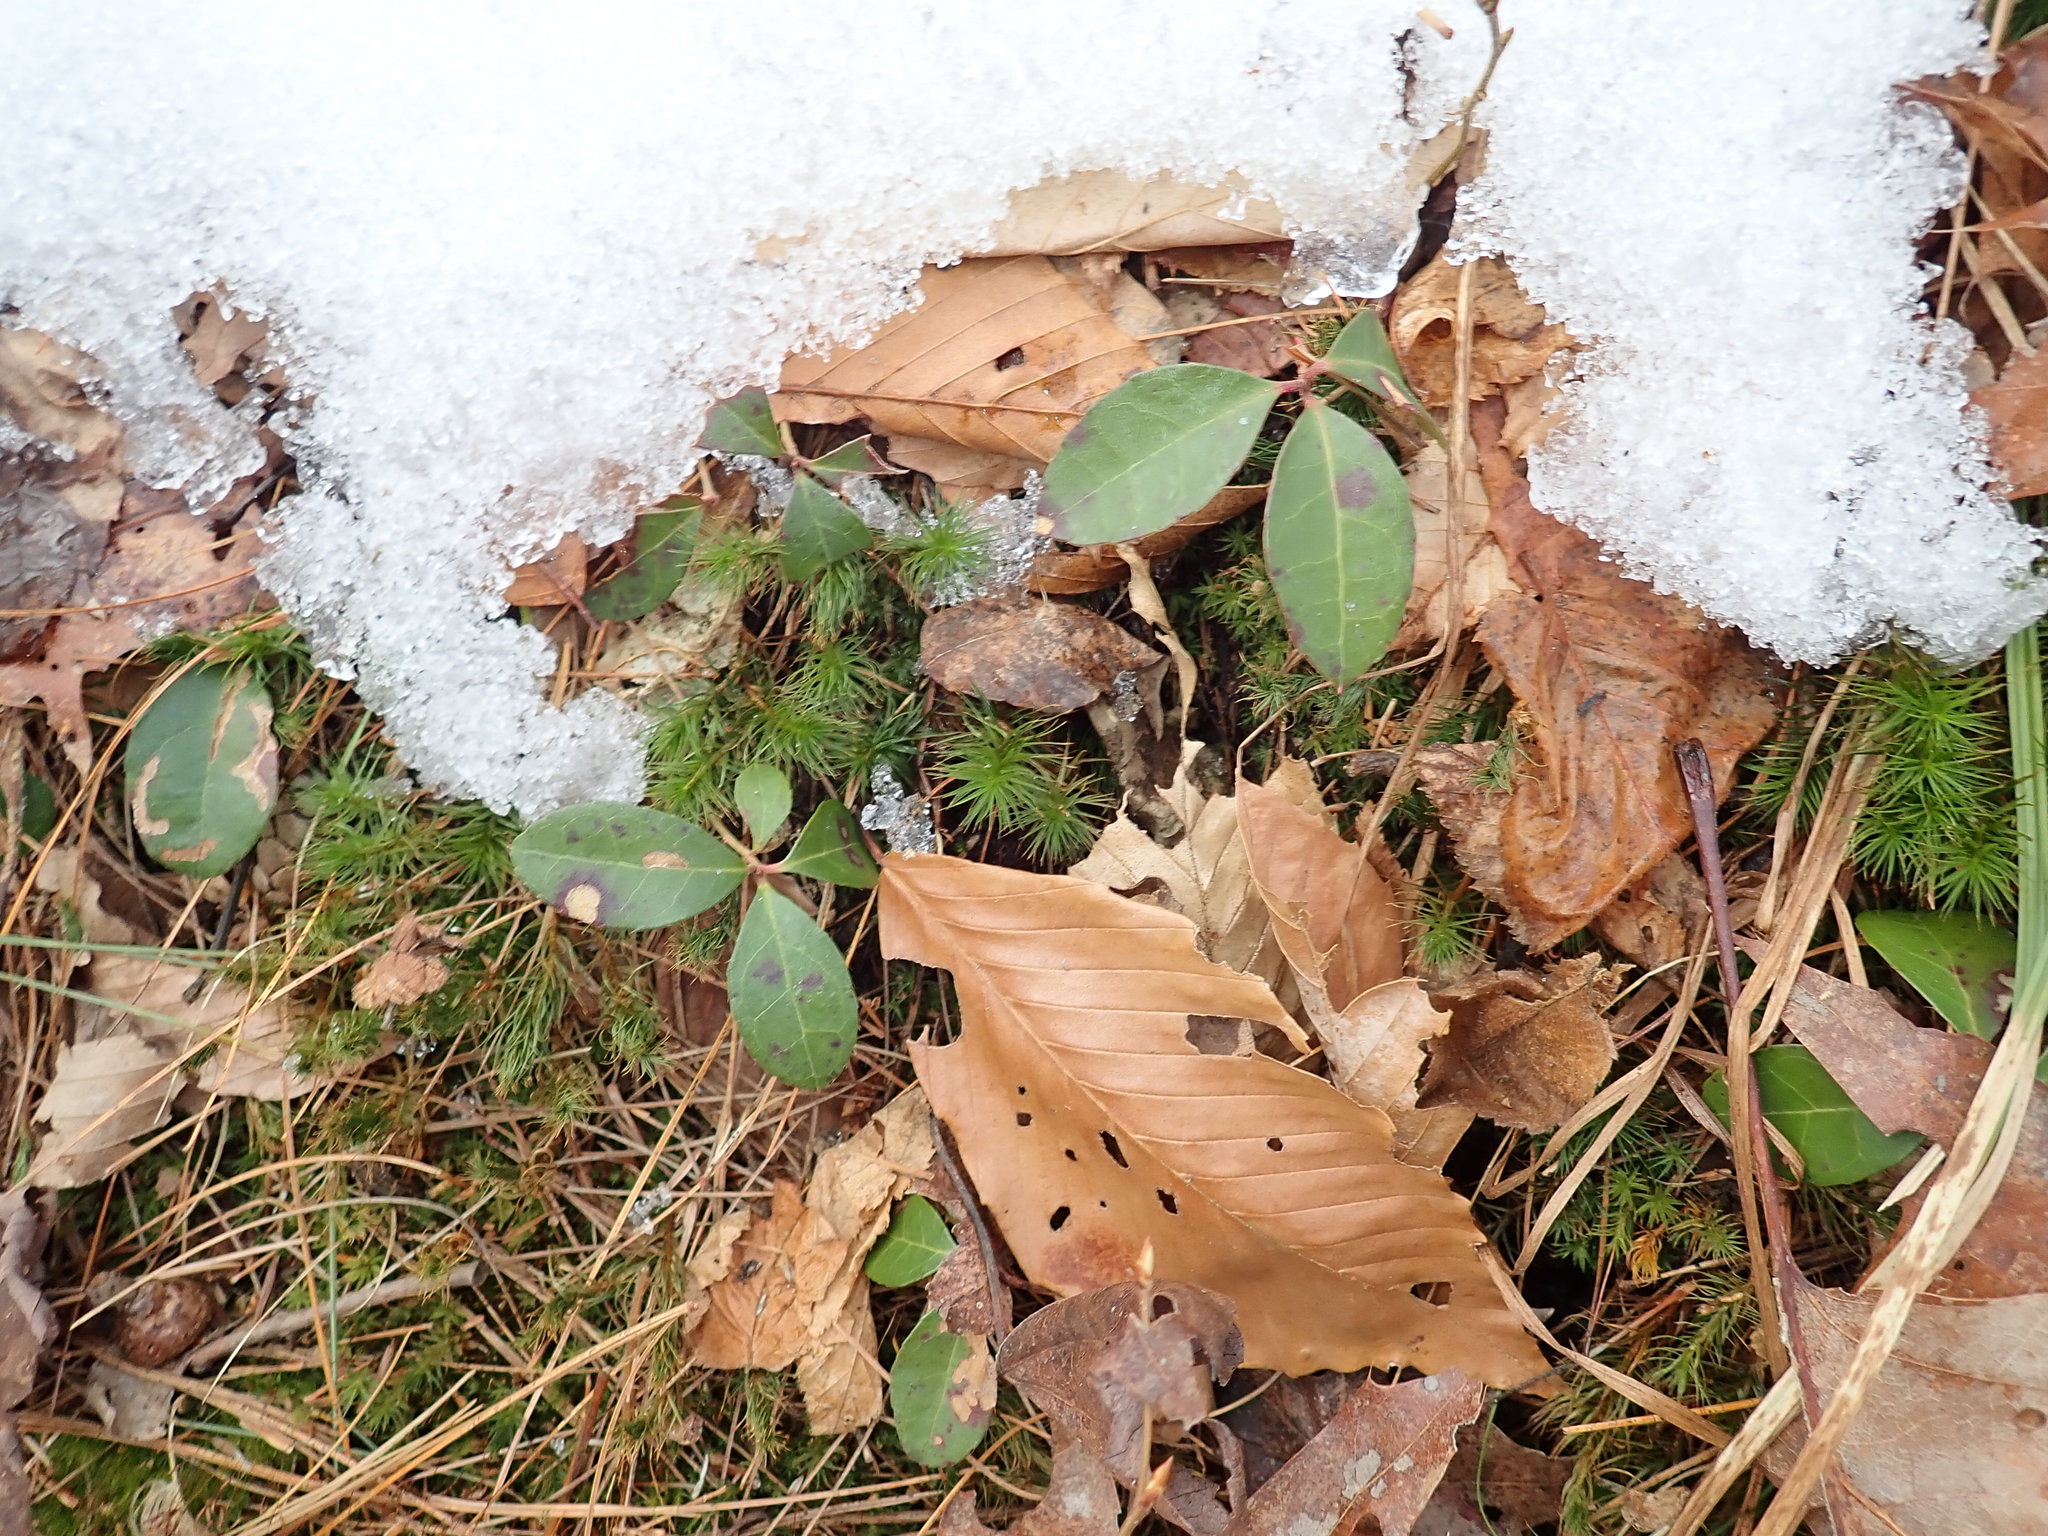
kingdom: Plantae
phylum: Tracheophyta
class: Magnoliopsida
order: Ericales
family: Ericaceae
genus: Gaultheria
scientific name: Gaultheria procumbens
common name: Checkerberry
